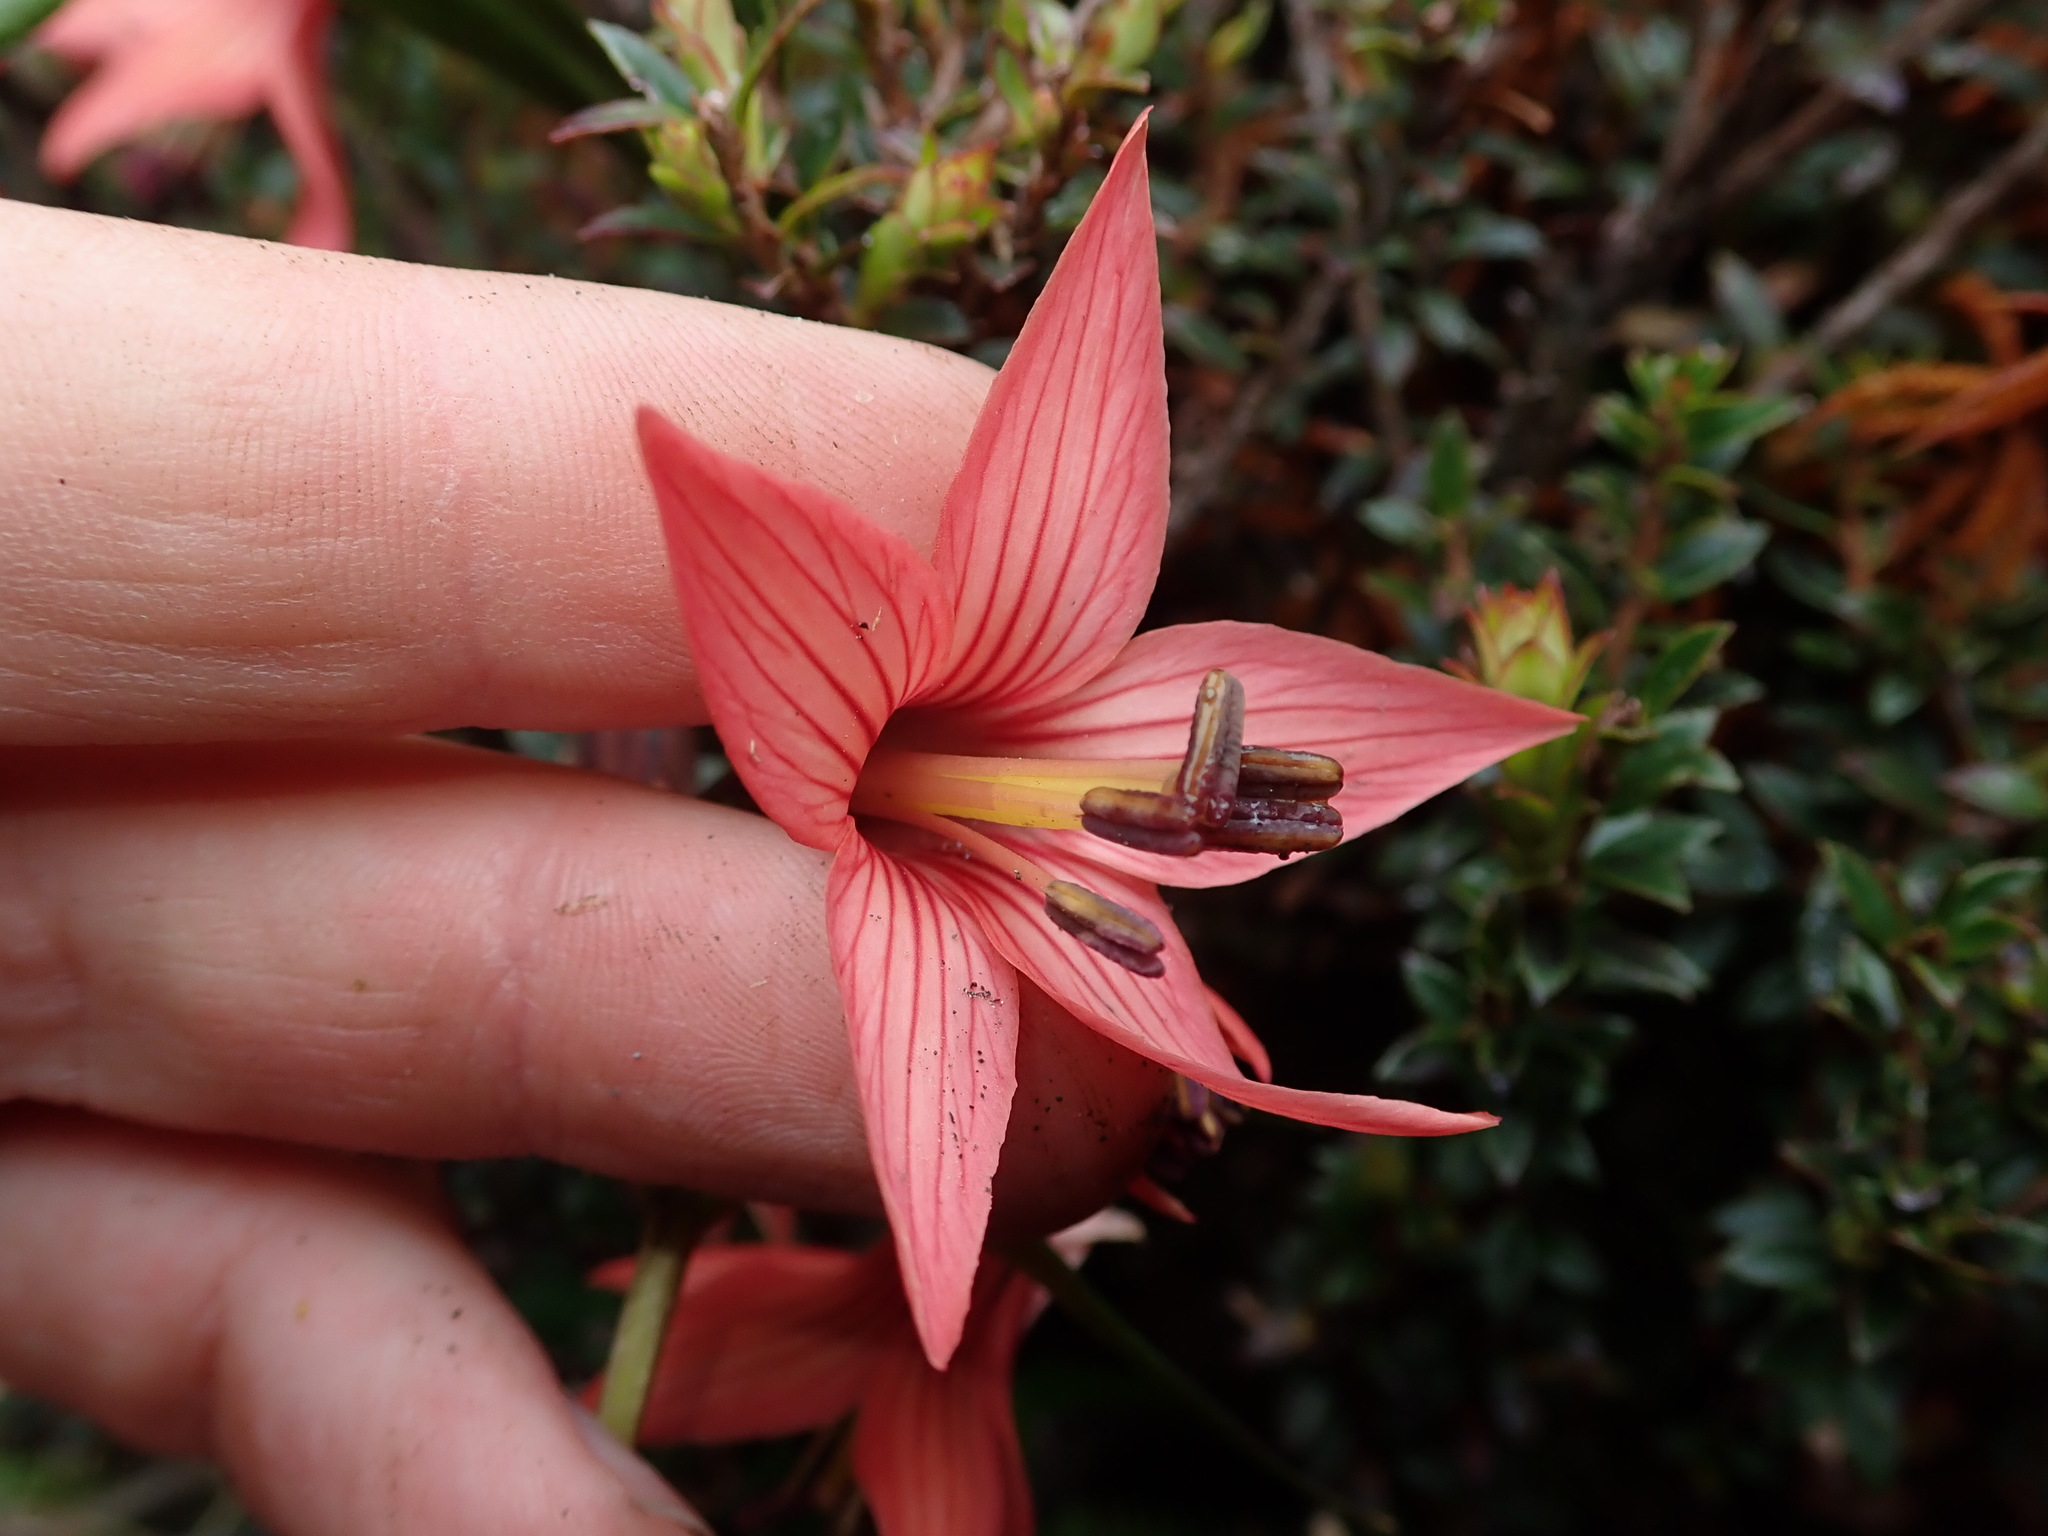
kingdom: Plantae
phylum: Tracheophyta
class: Magnoliopsida
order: Gentianales
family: Gentianaceae
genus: Gentianella
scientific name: Gentianella splendens
